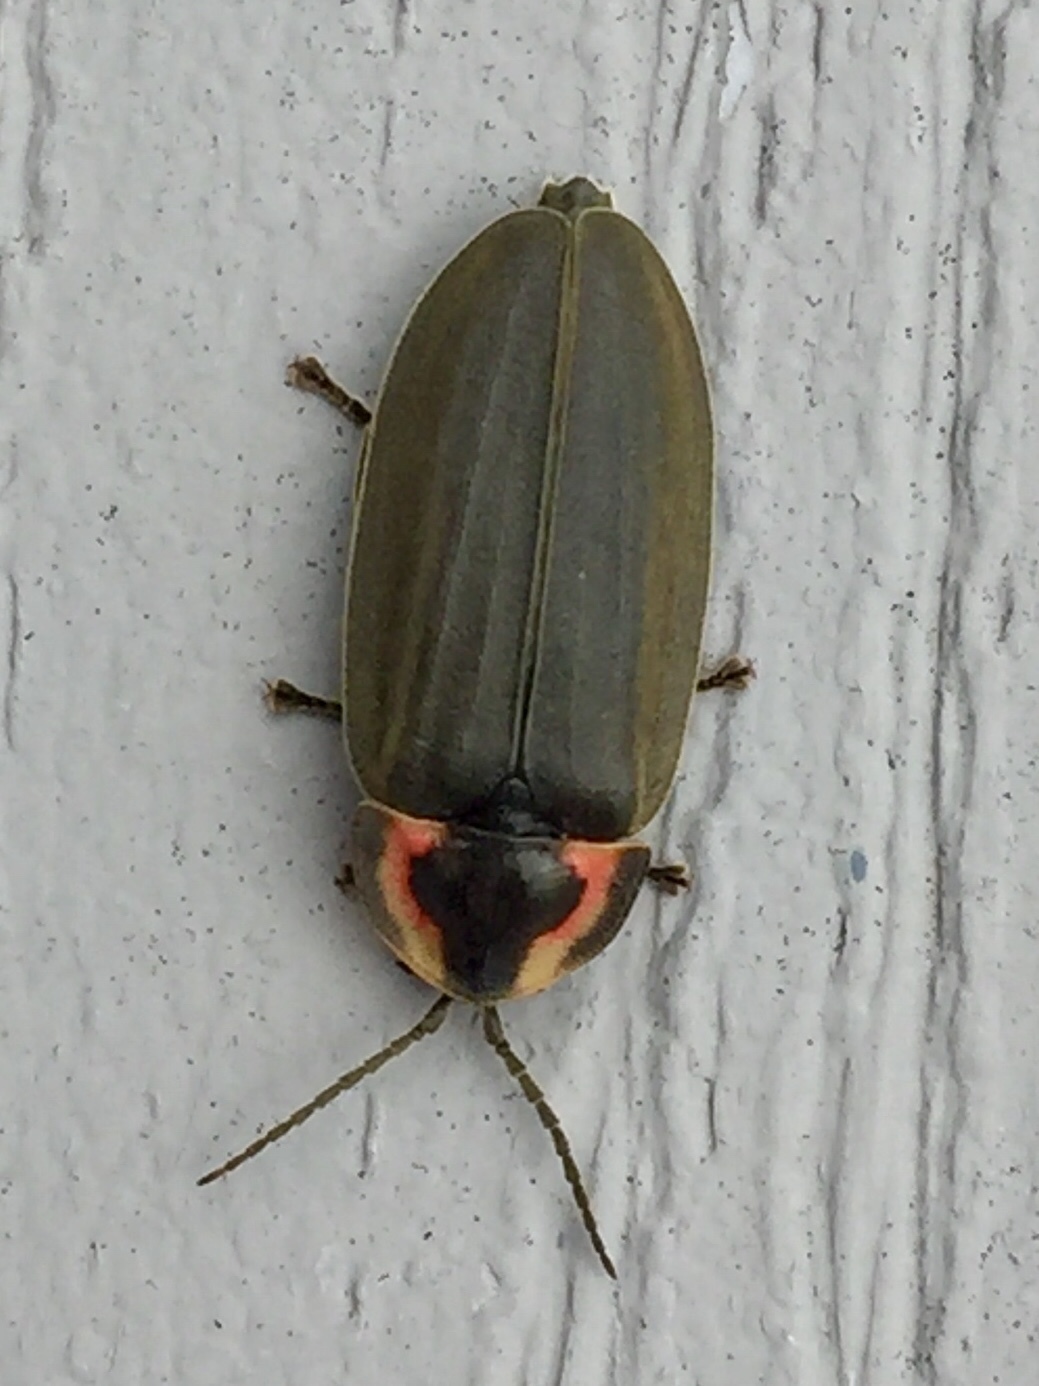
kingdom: Animalia
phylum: Arthropoda
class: Insecta
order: Coleoptera
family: Lampyridae
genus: Photinus
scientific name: Photinus corrusca
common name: Winter firefly
